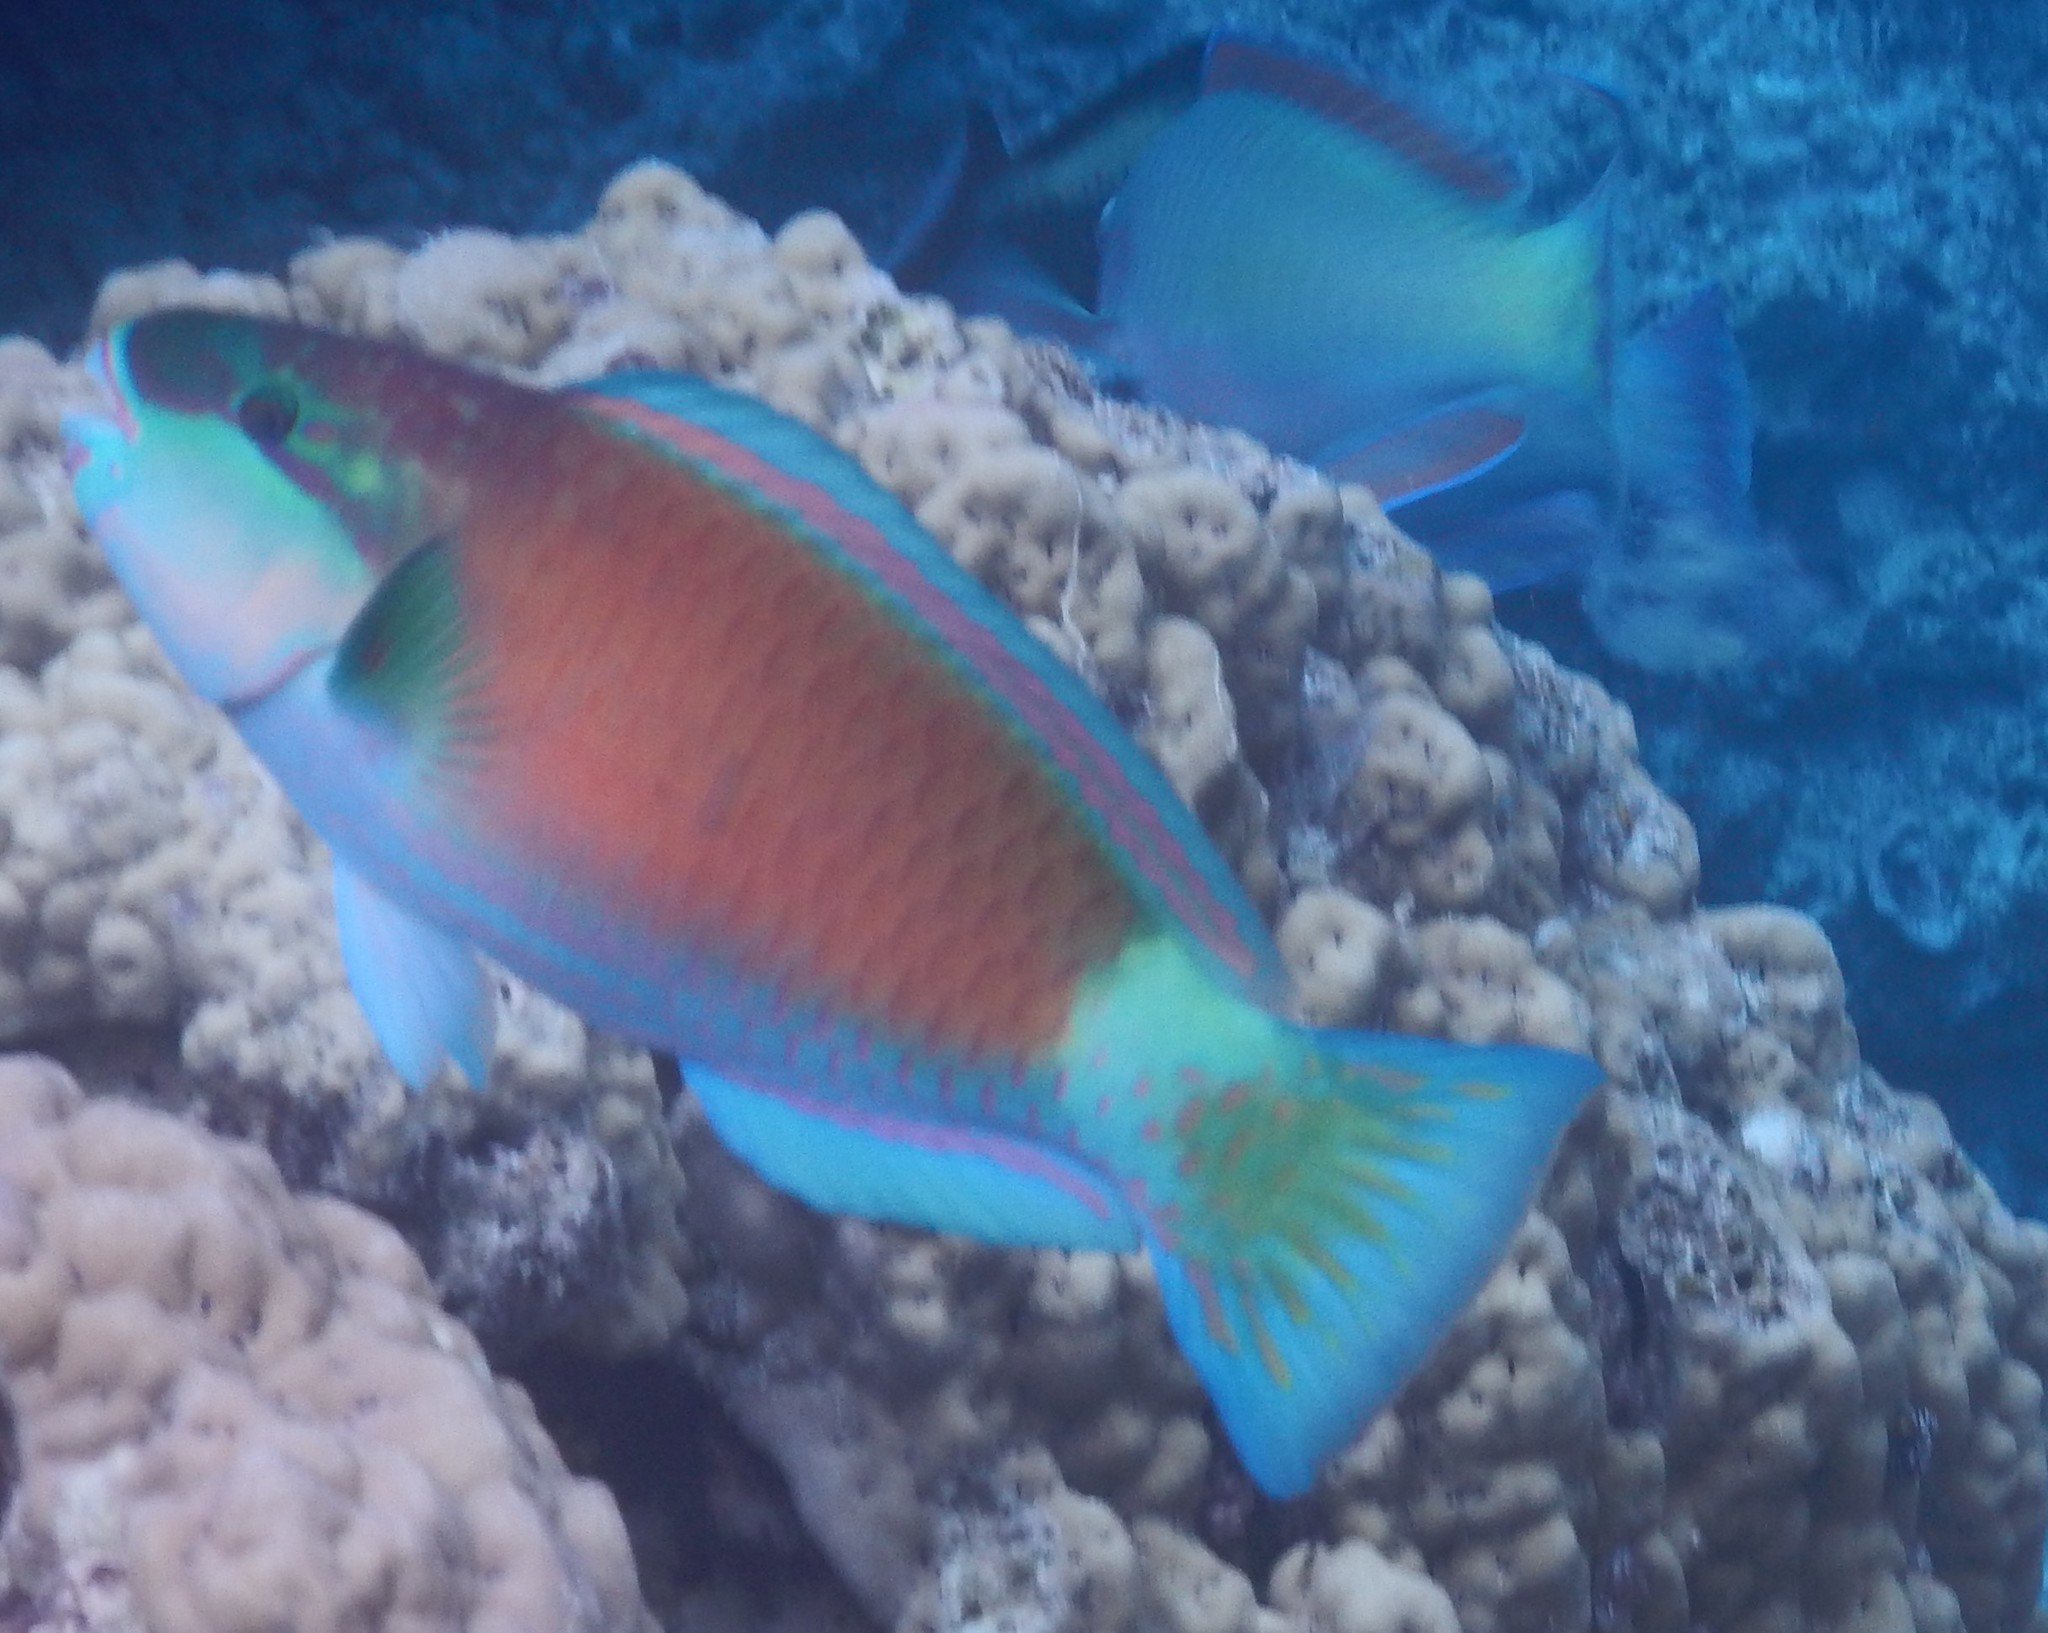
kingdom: Animalia
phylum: Chordata
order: Perciformes
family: Scaridae
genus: Chlorurus
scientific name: Chlorurus spilurus
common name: Bullethead parrotfish
